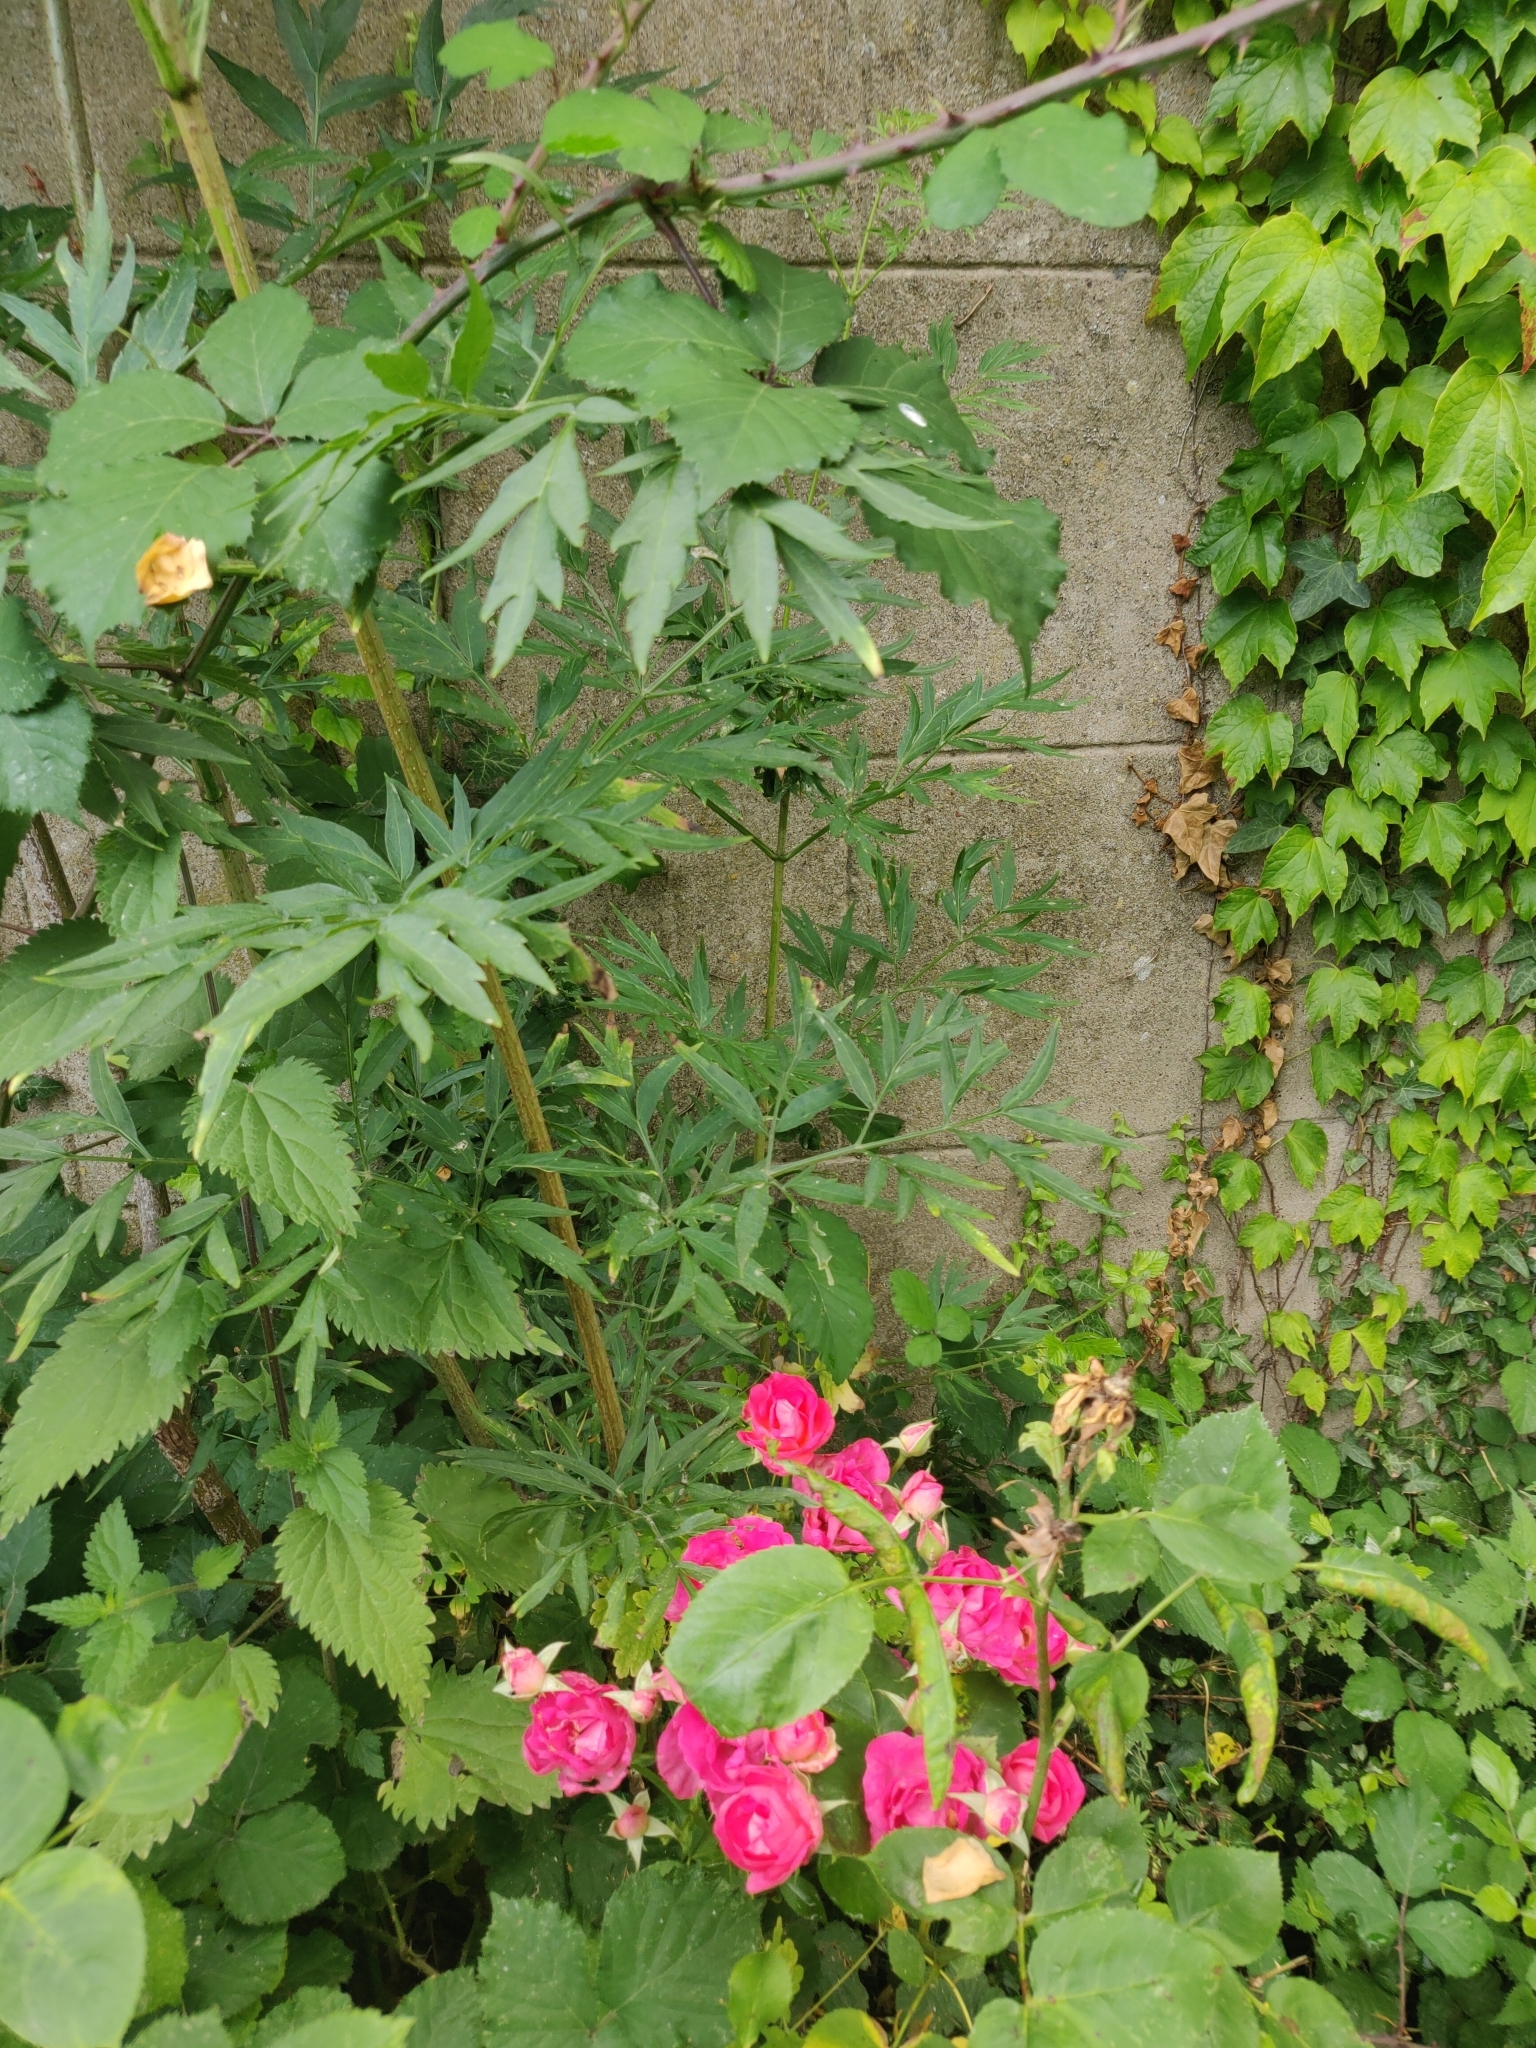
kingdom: Plantae
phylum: Tracheophyta
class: Magnoliopsida
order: Dipsacales
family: Viburnaceae
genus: Sambucus
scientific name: Sambucus nigra
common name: Elder
